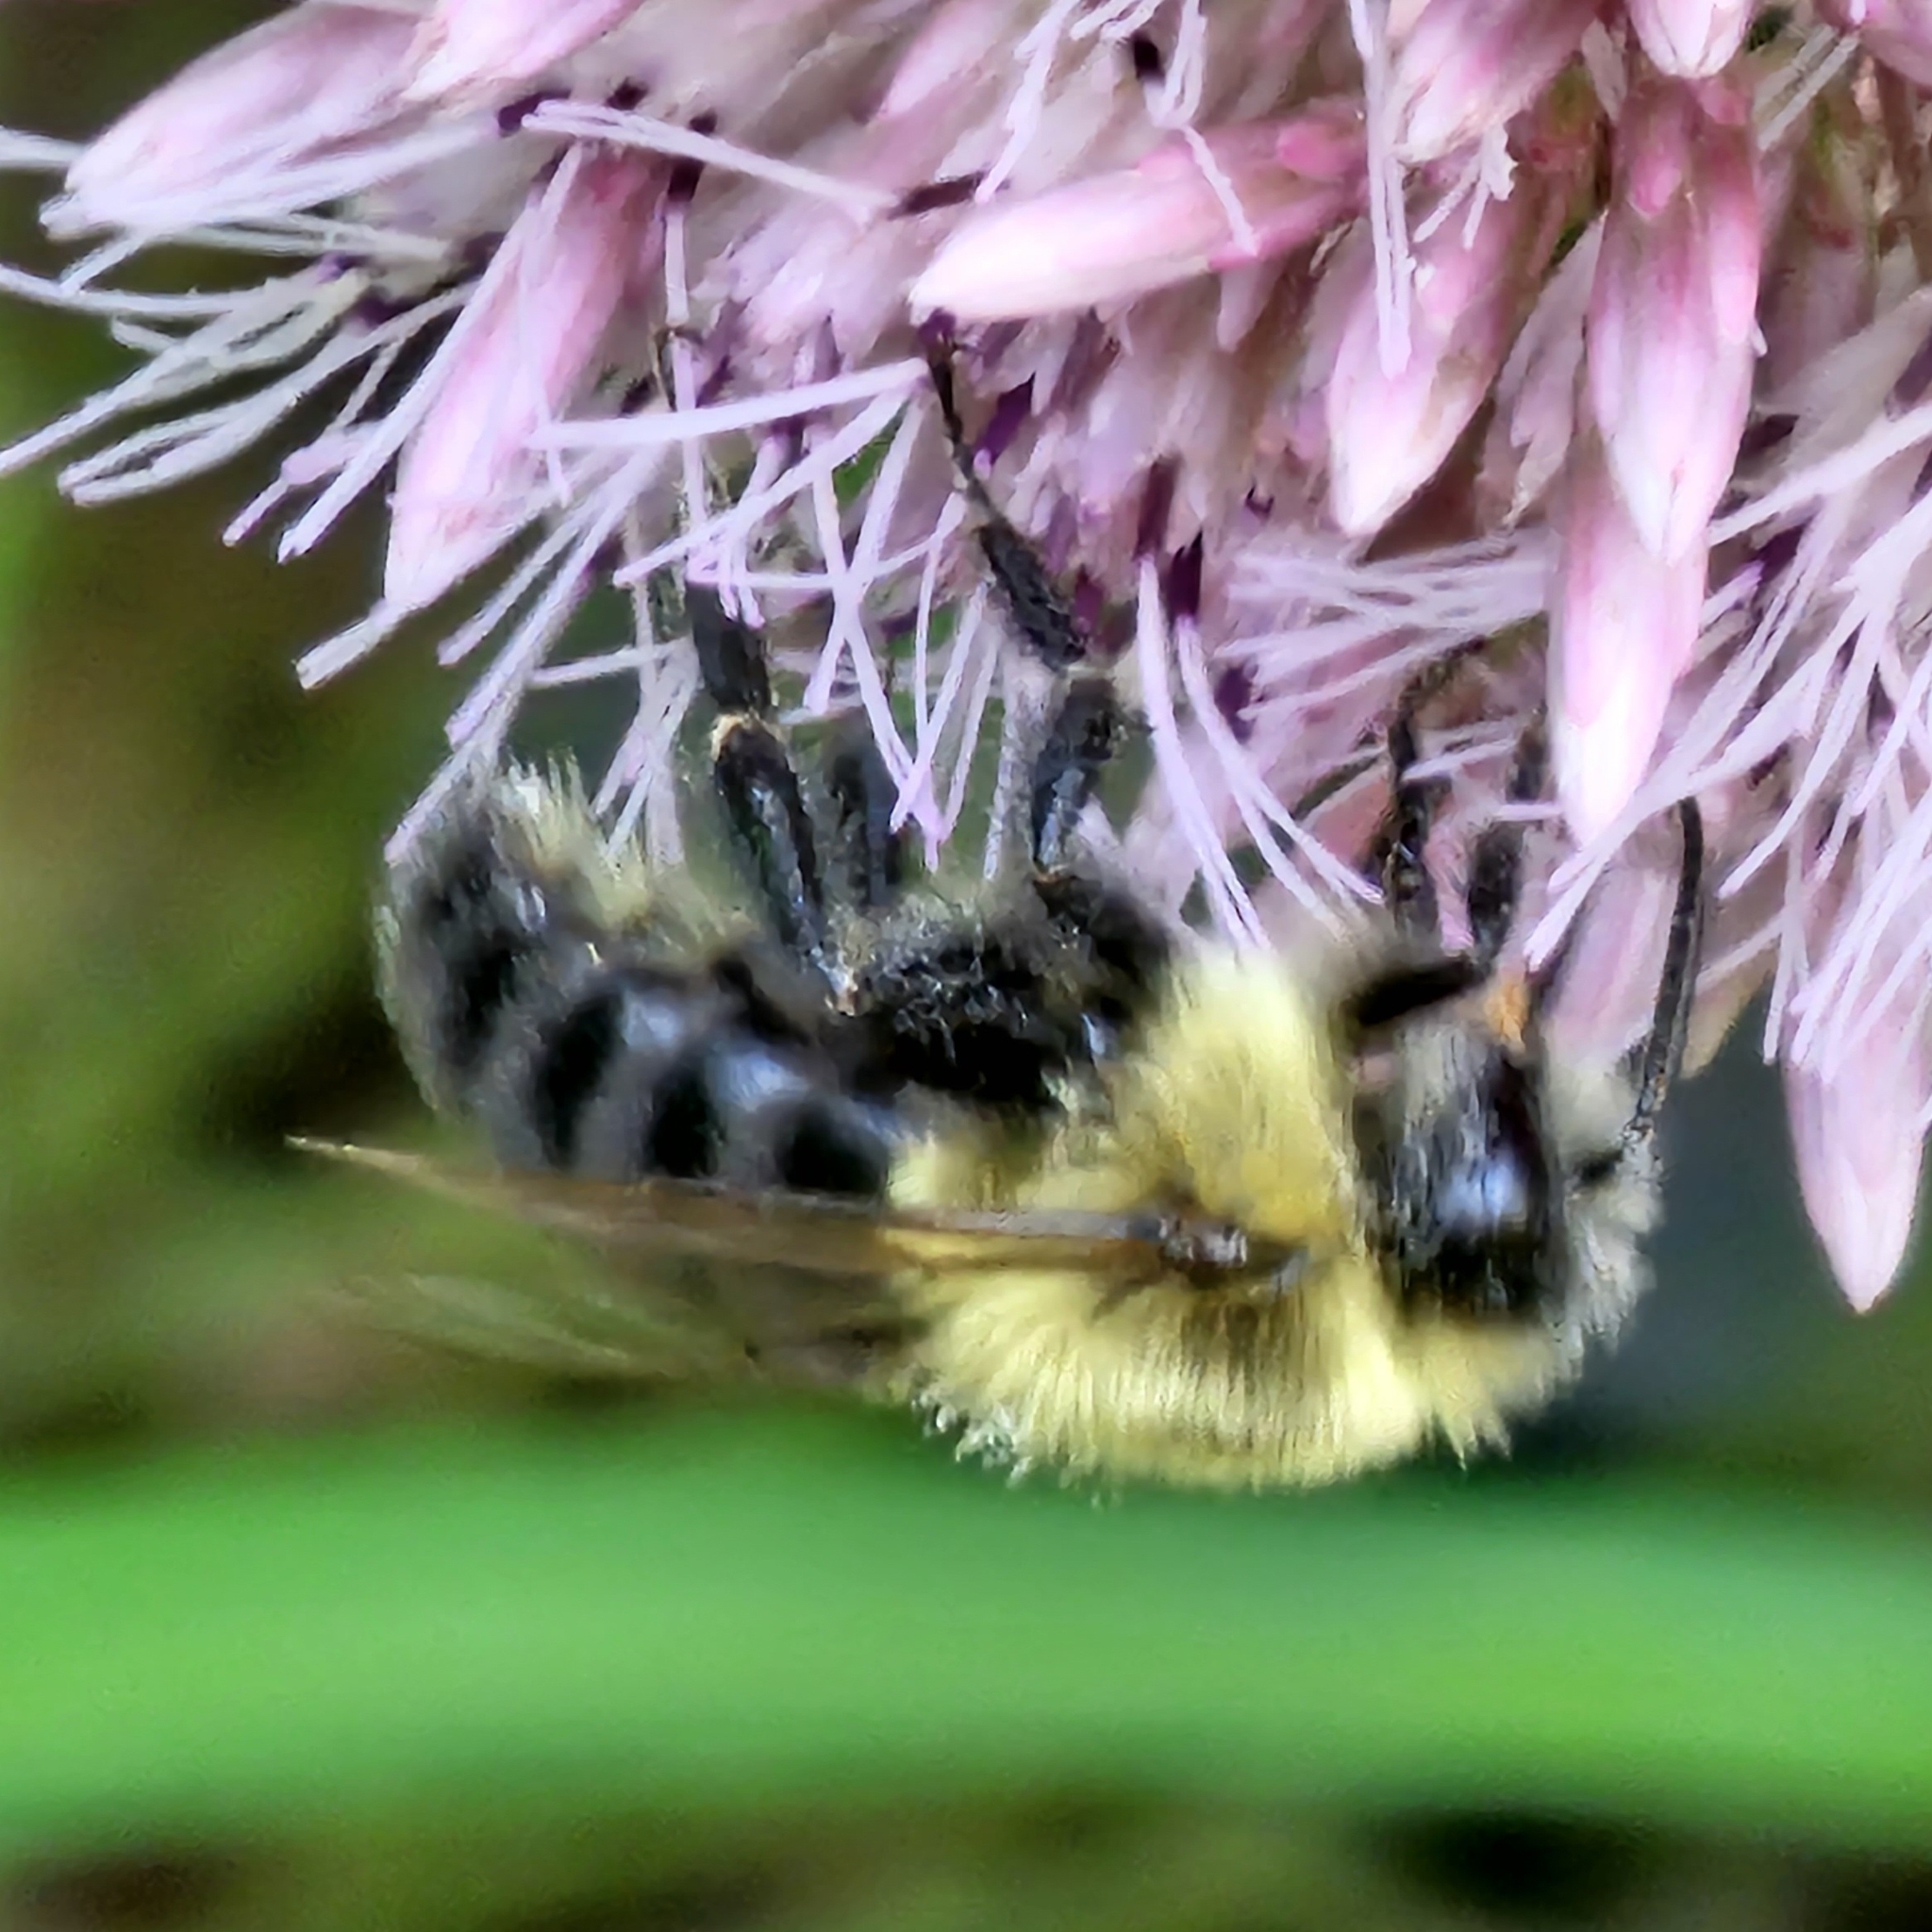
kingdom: Animalia
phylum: Arthropoda
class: Insecta
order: Hymenoptera
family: Apidae
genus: Bombus
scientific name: Bombus impatiens
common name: Common eastern bumble bee
